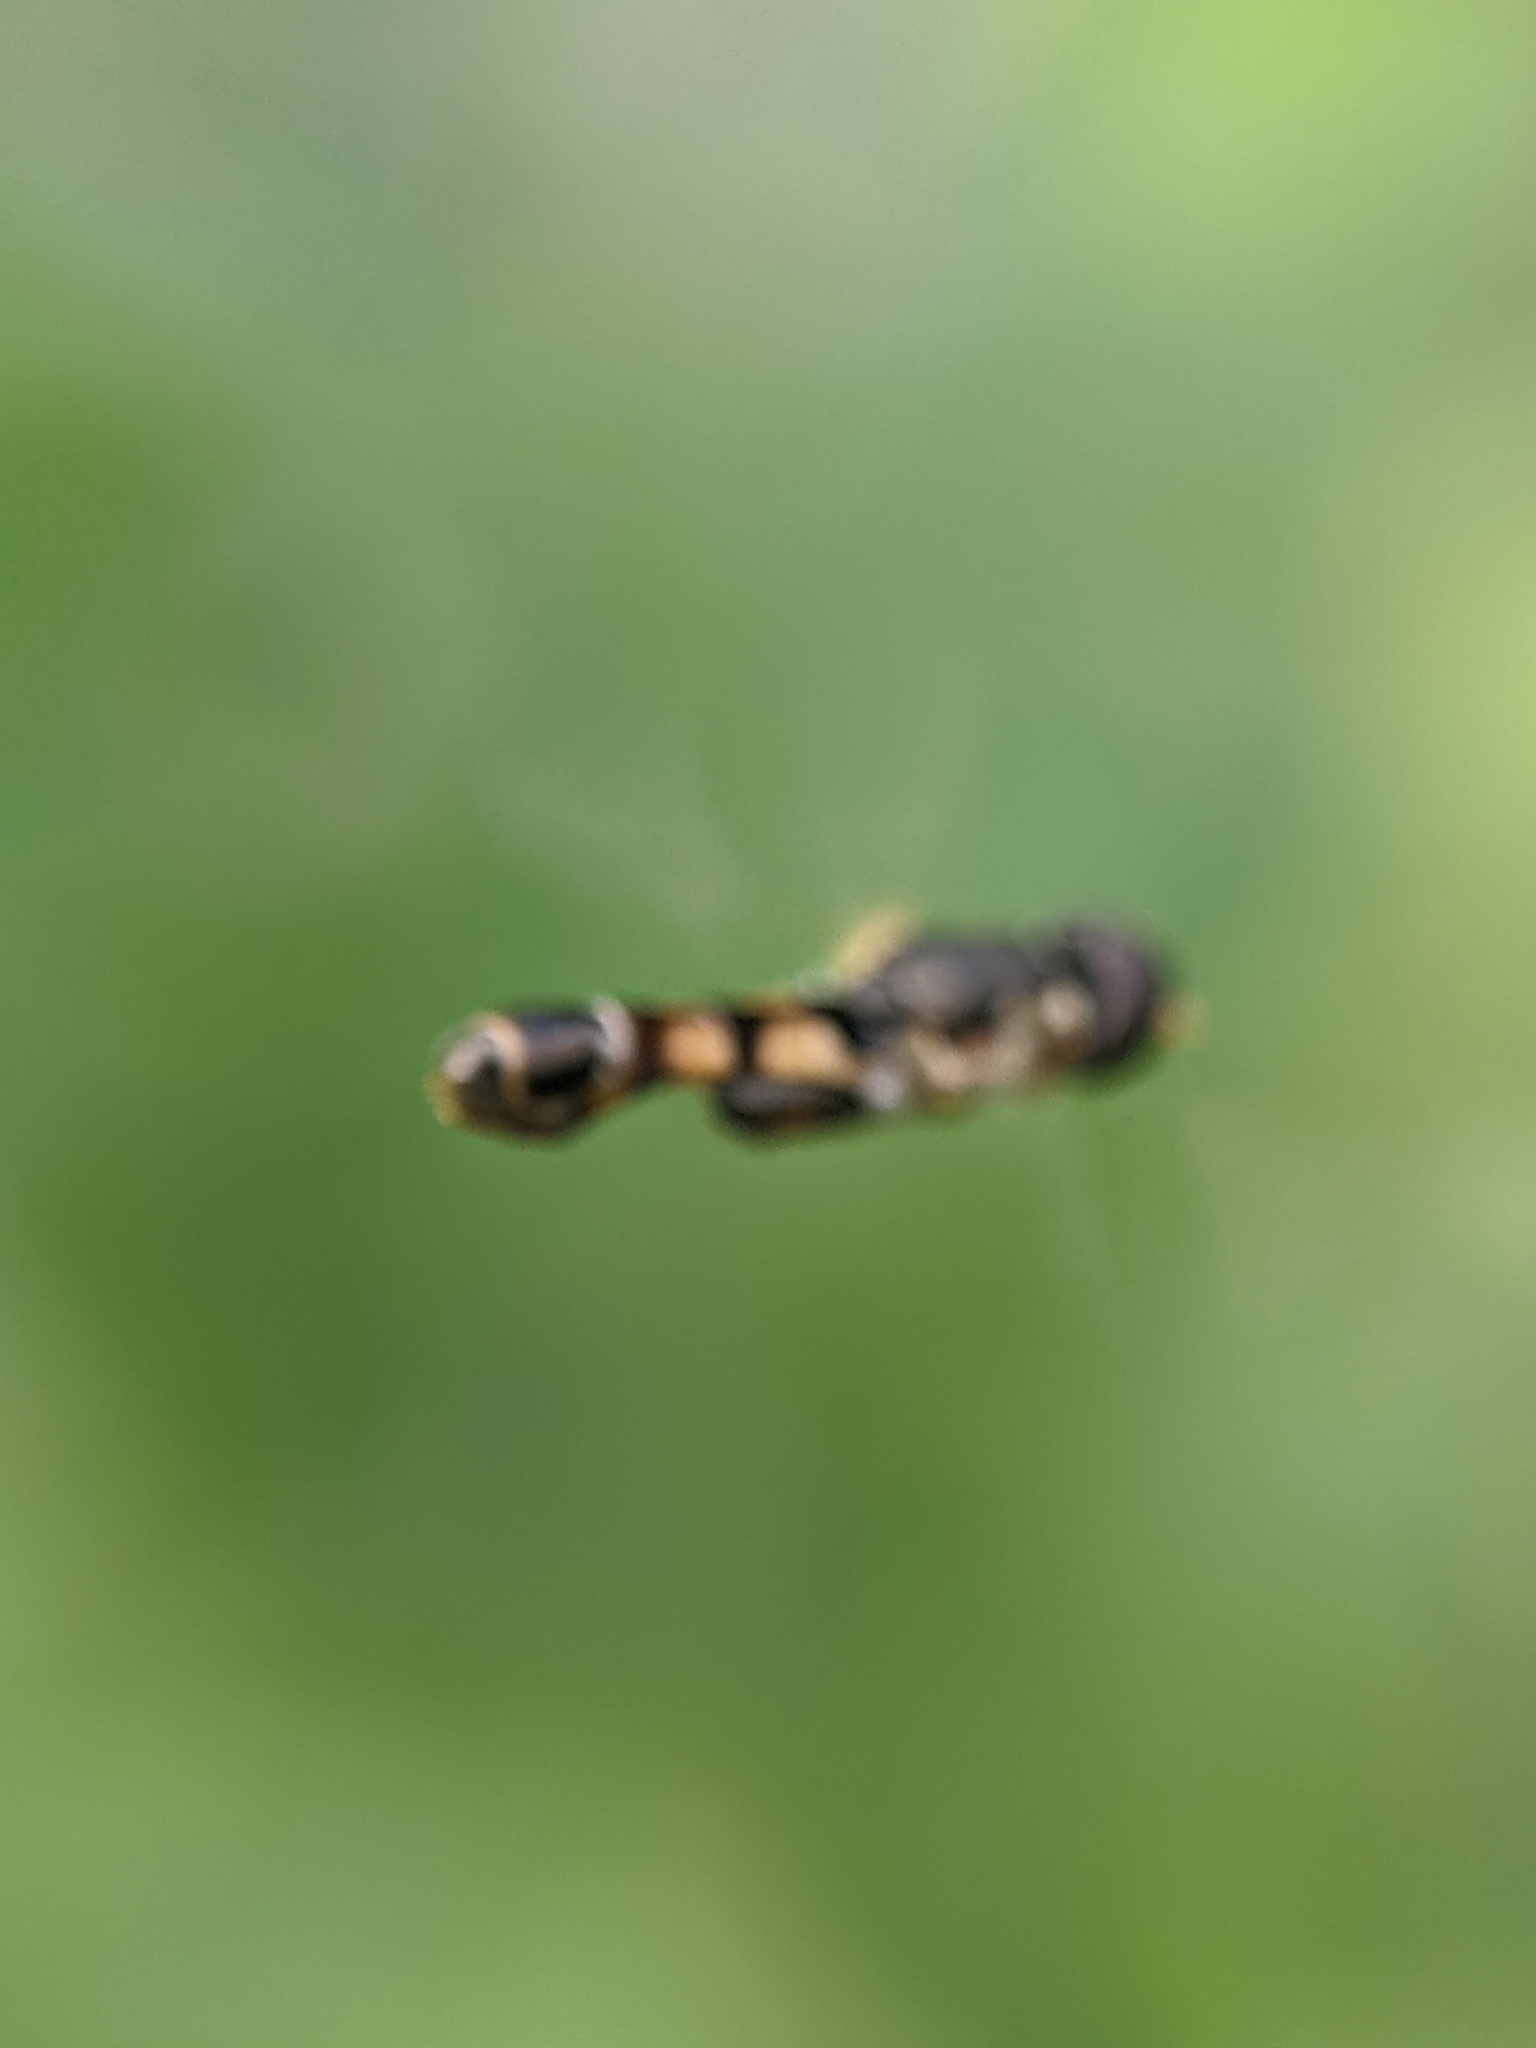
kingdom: Animalia
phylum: Arthropoda
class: Insecta
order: Diptera
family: Syrphidae
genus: Syritta
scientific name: Syritta pipiens
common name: Hover fly
